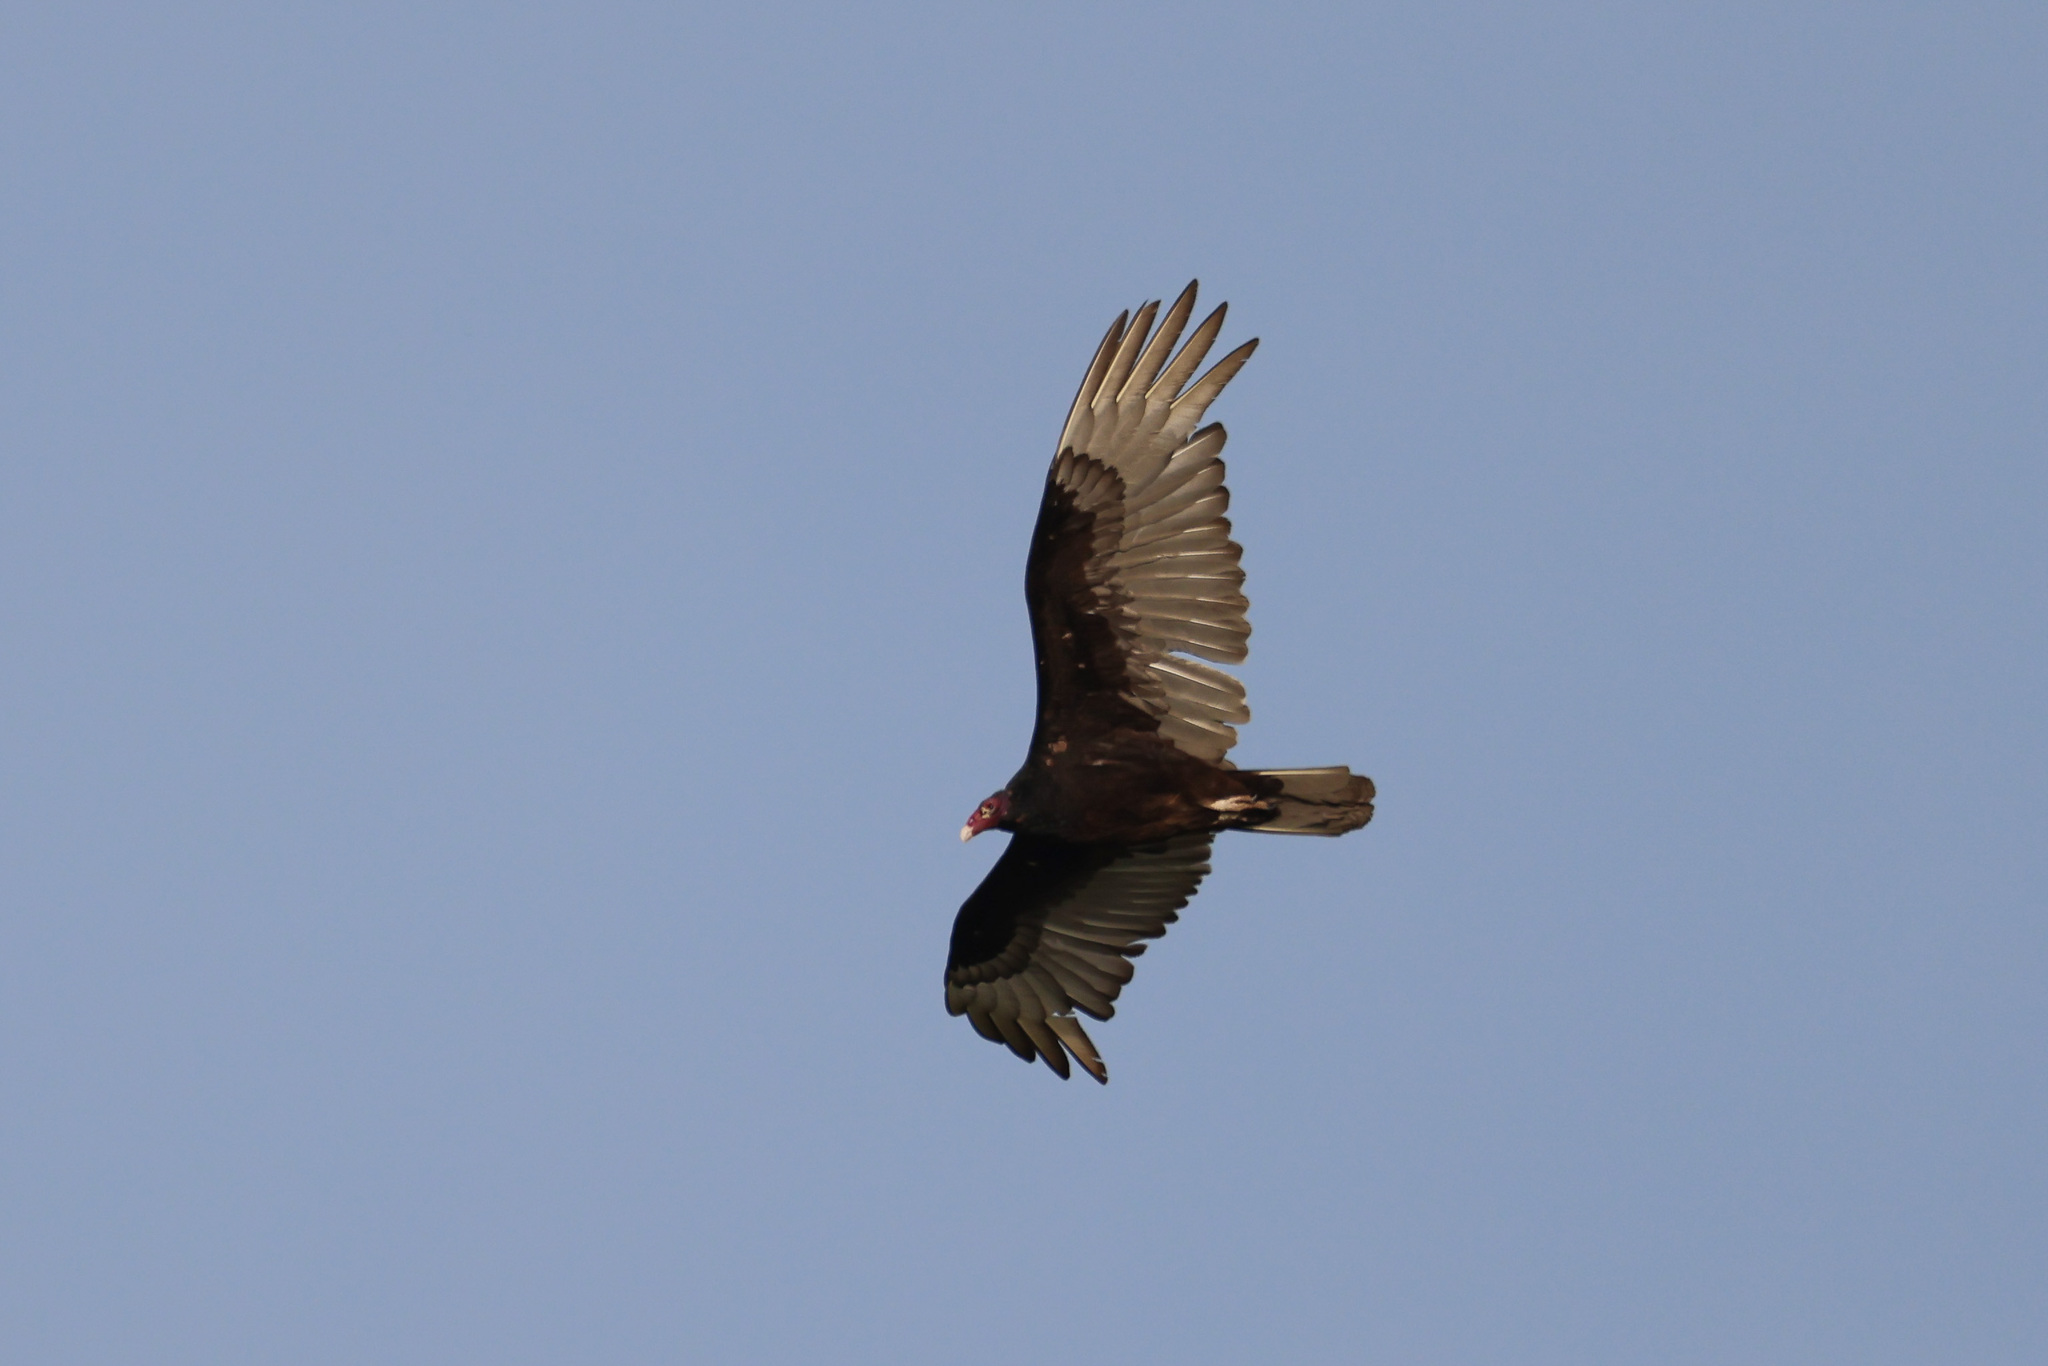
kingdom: Animalia
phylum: Chordata
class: Aves
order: Accipitriformes
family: Cathartidae
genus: Cathartes
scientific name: Cathartes aura
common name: Turkey vulture
